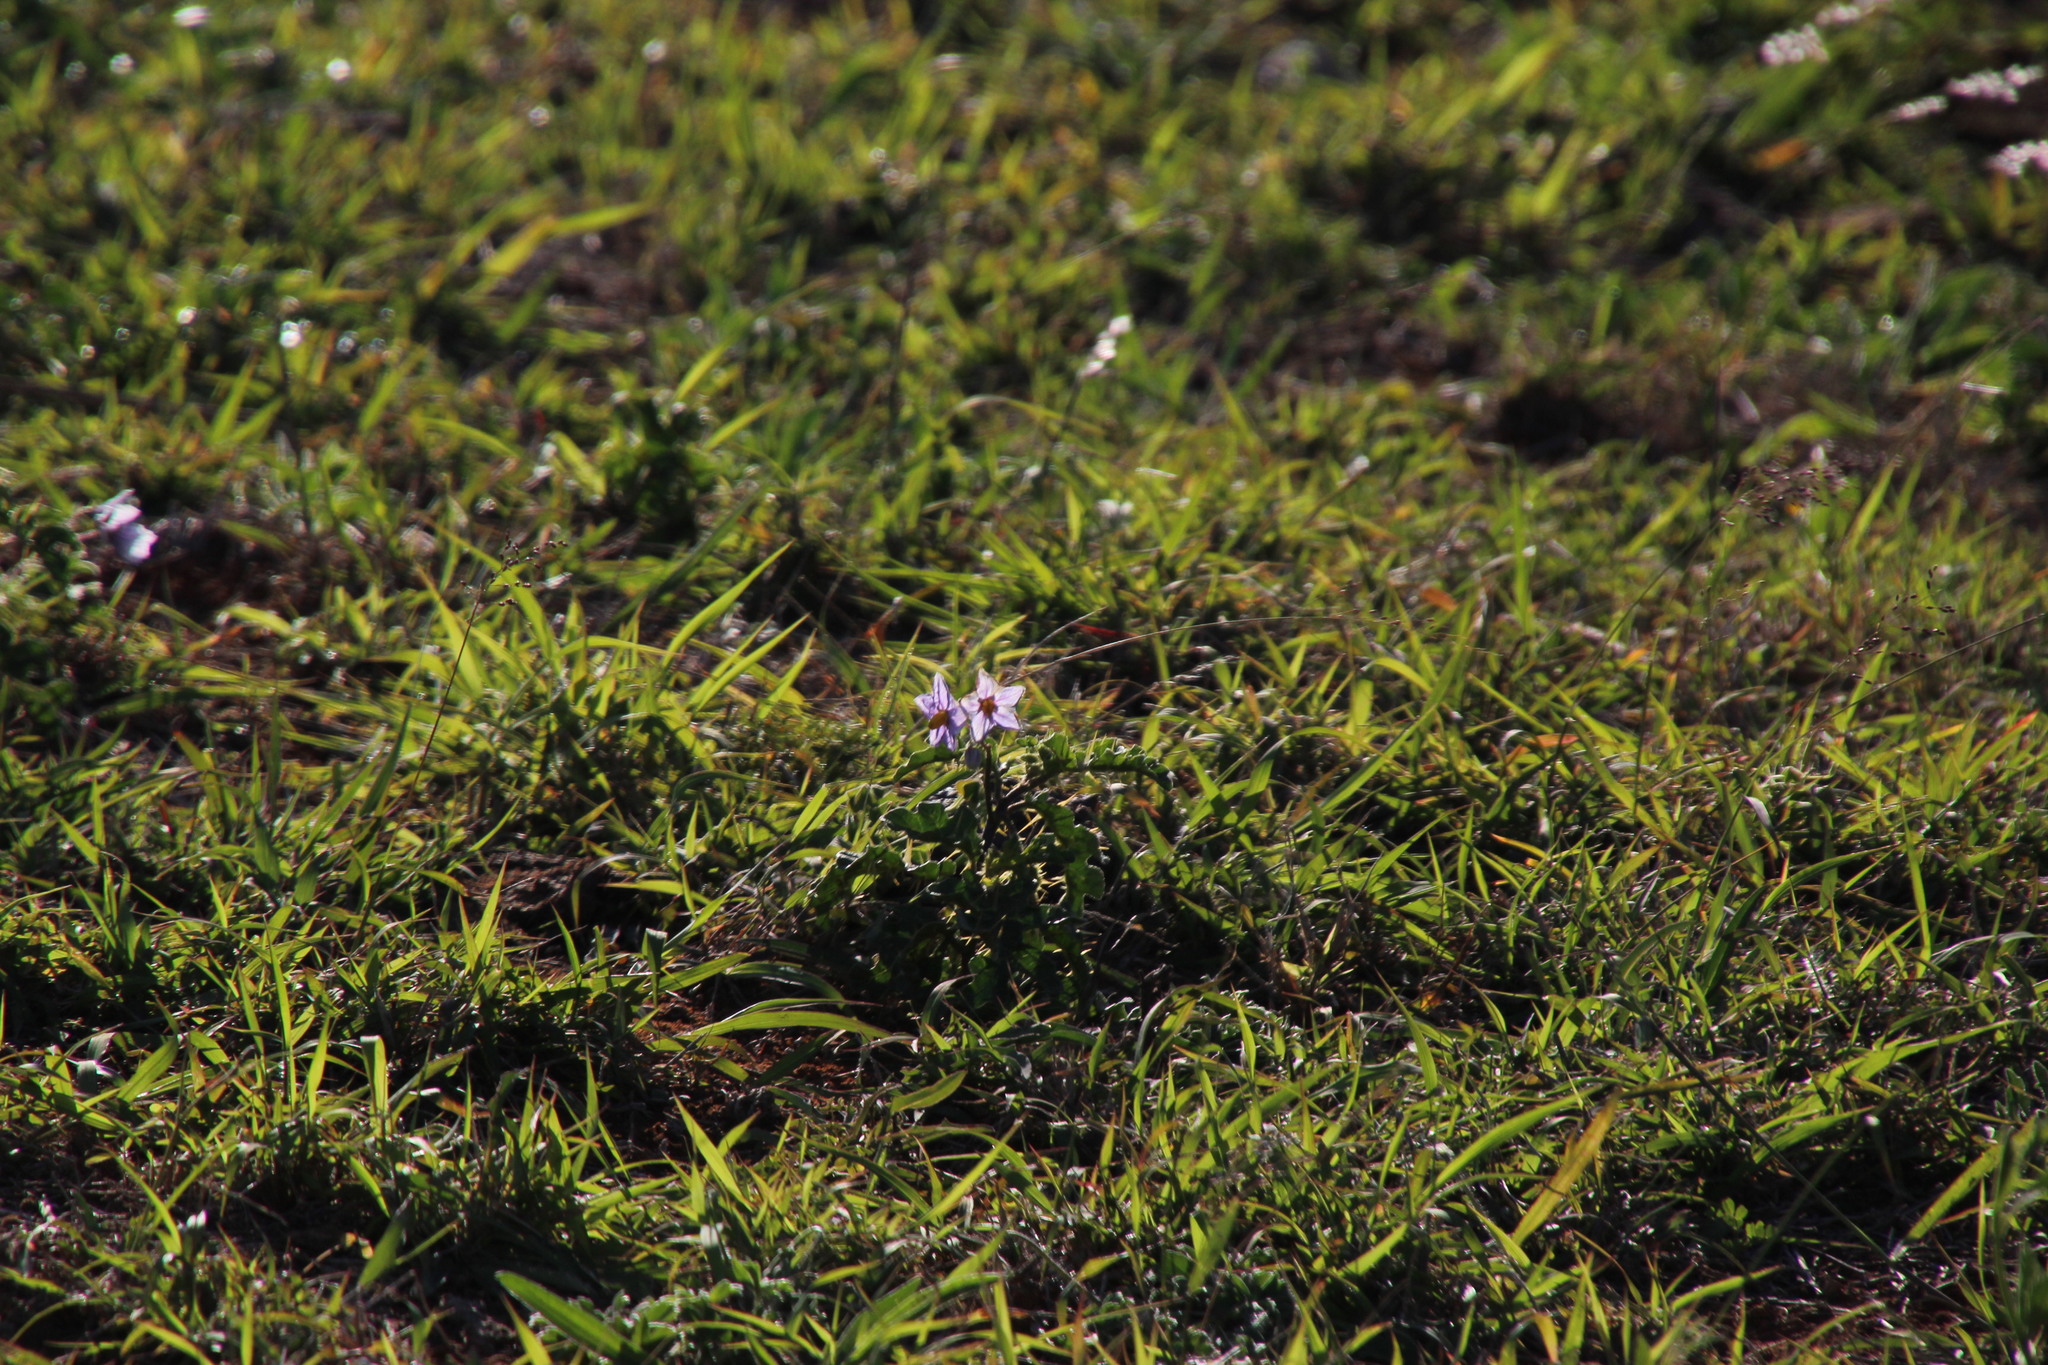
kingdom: Plantae
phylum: Tracheophyta
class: Magnoliopsida
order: Solanales
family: Solanaceae
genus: Solanum
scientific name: Solanum linnaeanum
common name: Nightshade
